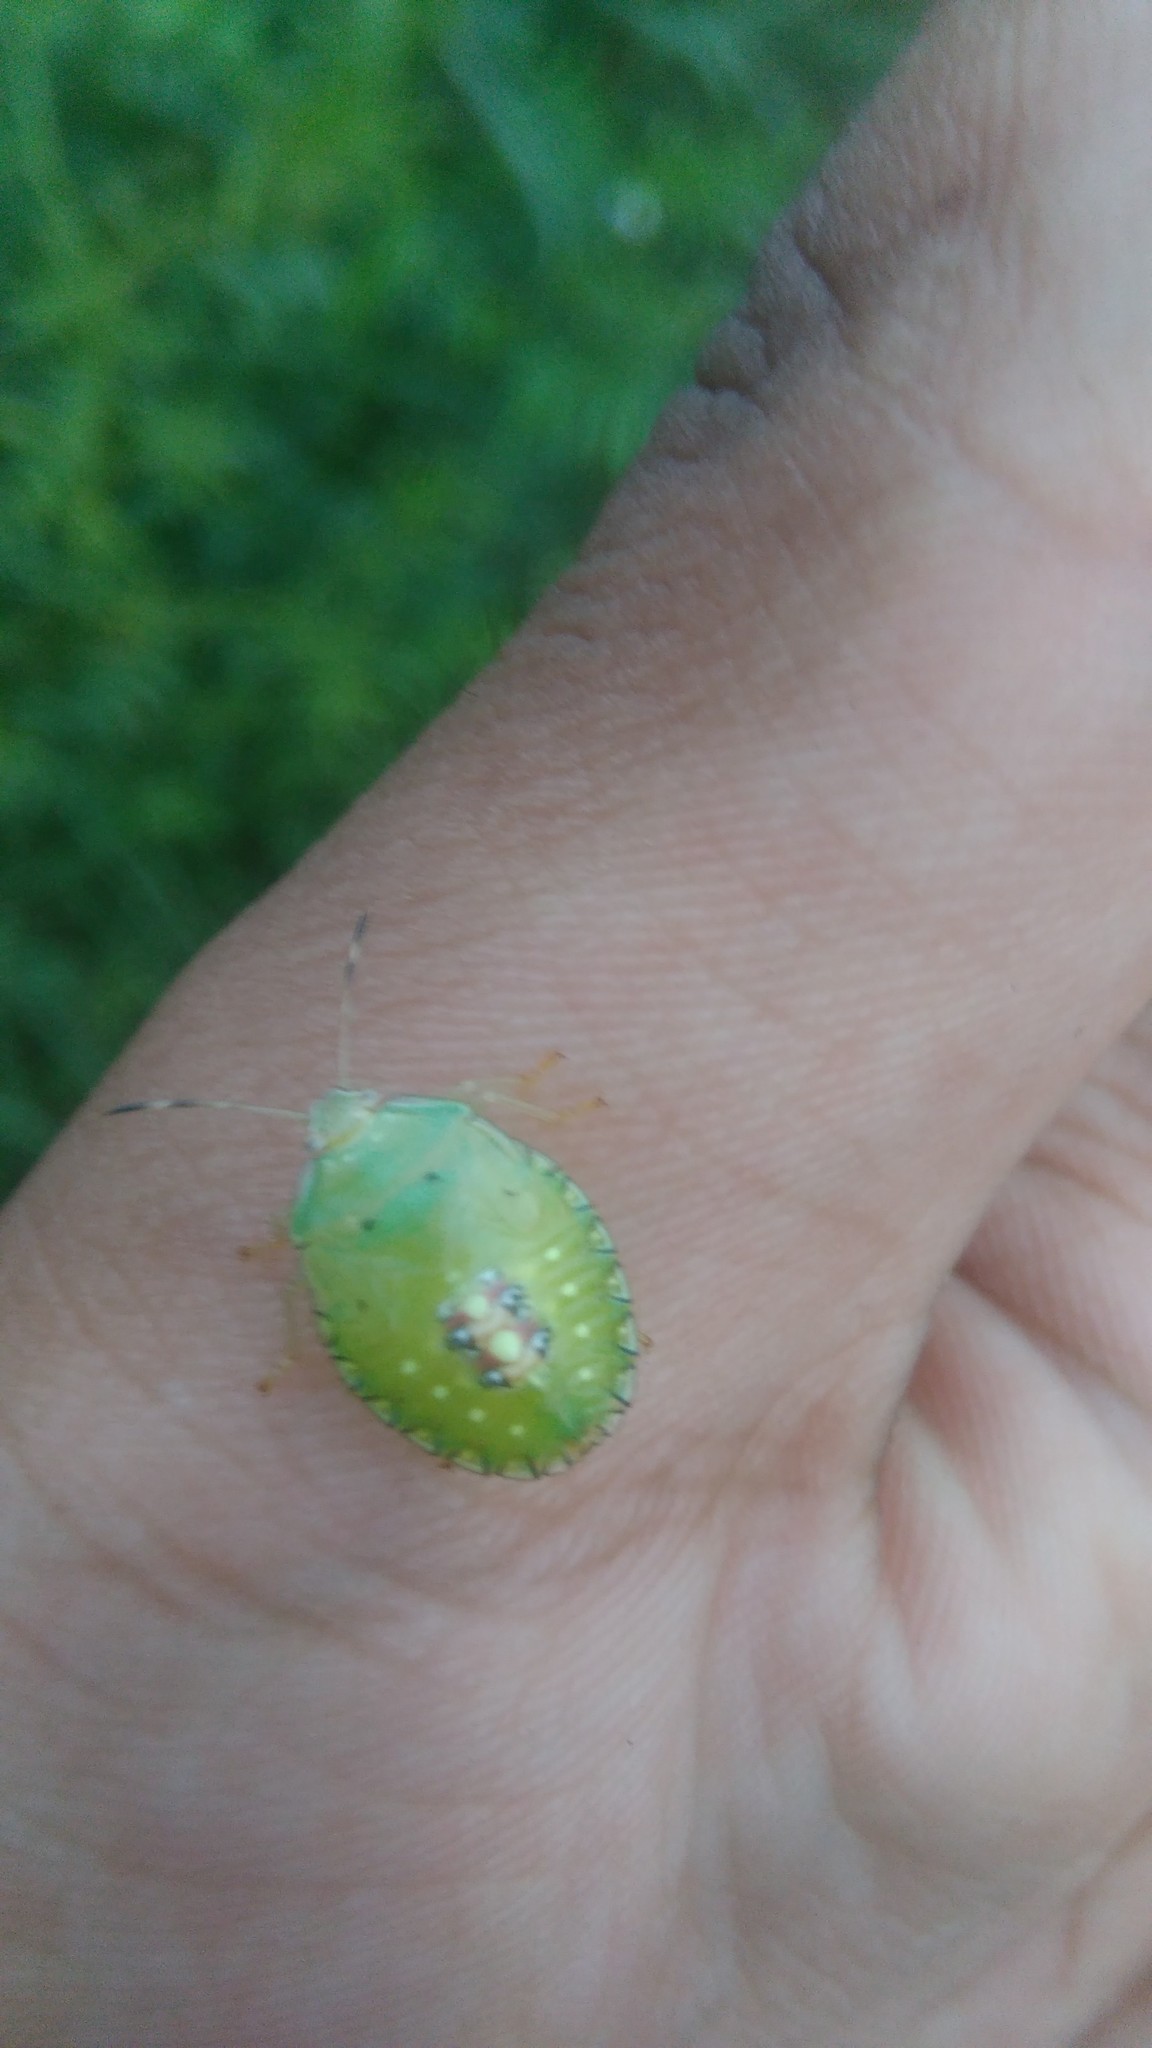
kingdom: Animalia
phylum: Arthropoda
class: Insecta
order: Hemiptera
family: Pentatomidae
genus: Edessa
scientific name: Edessa meditabunda
